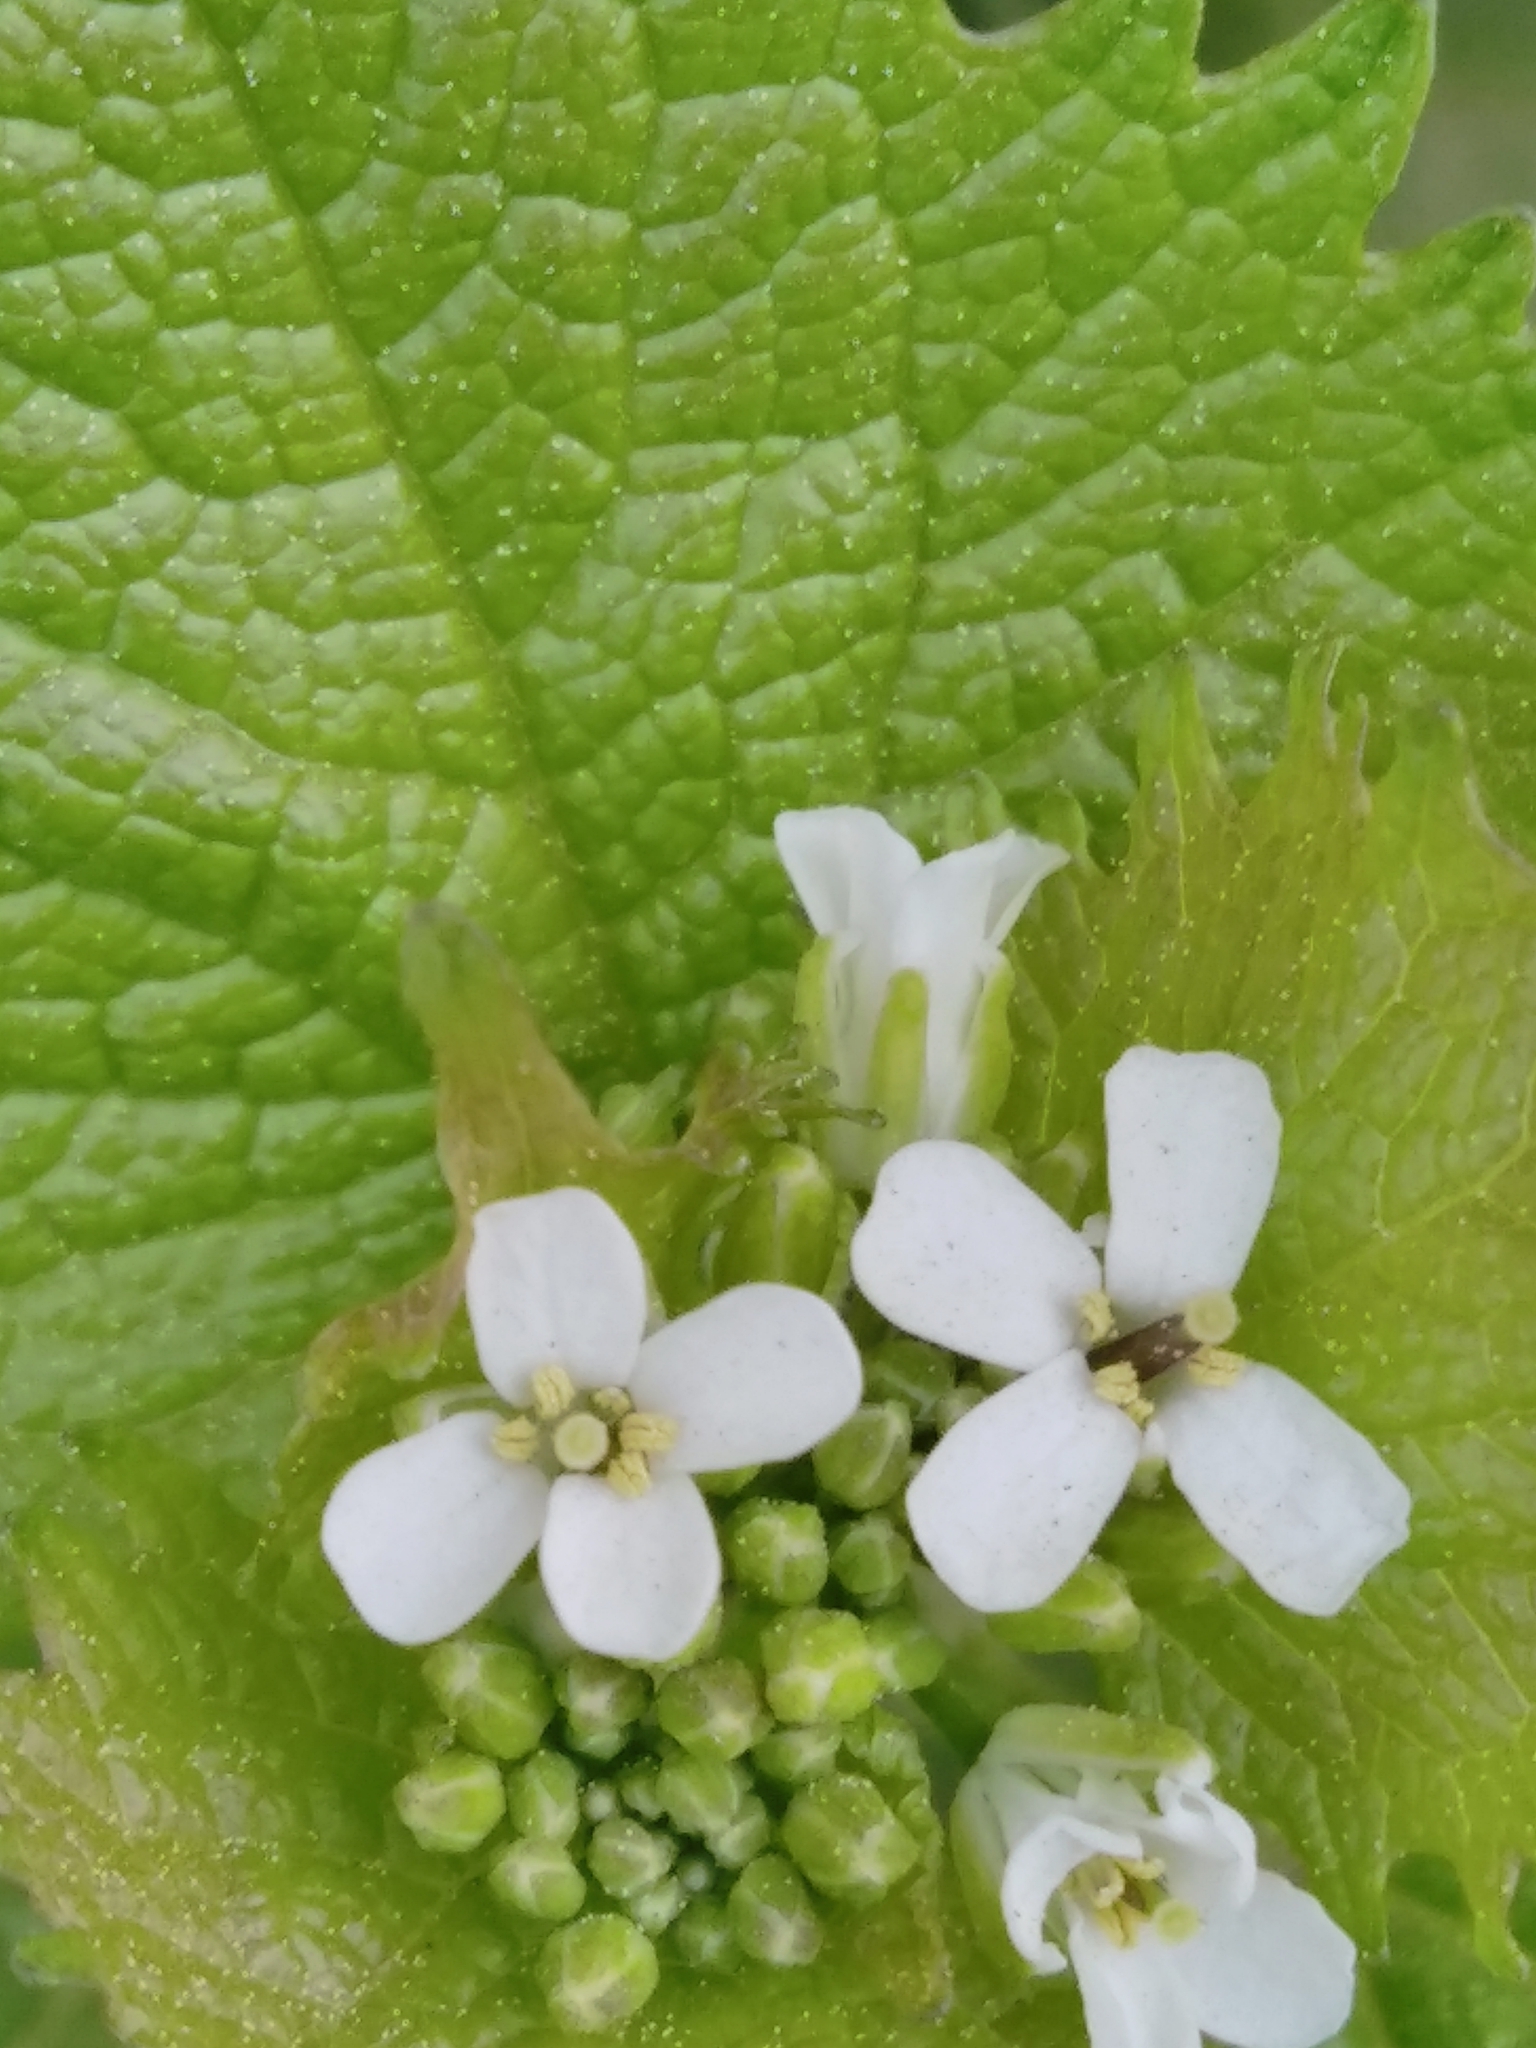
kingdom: Plantae
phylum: Tracheophyta
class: Magnoliopsida
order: Brassicales
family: Brassicaceae
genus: Alliaria
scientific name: Alliaria petiolata
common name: Garlic mustard
